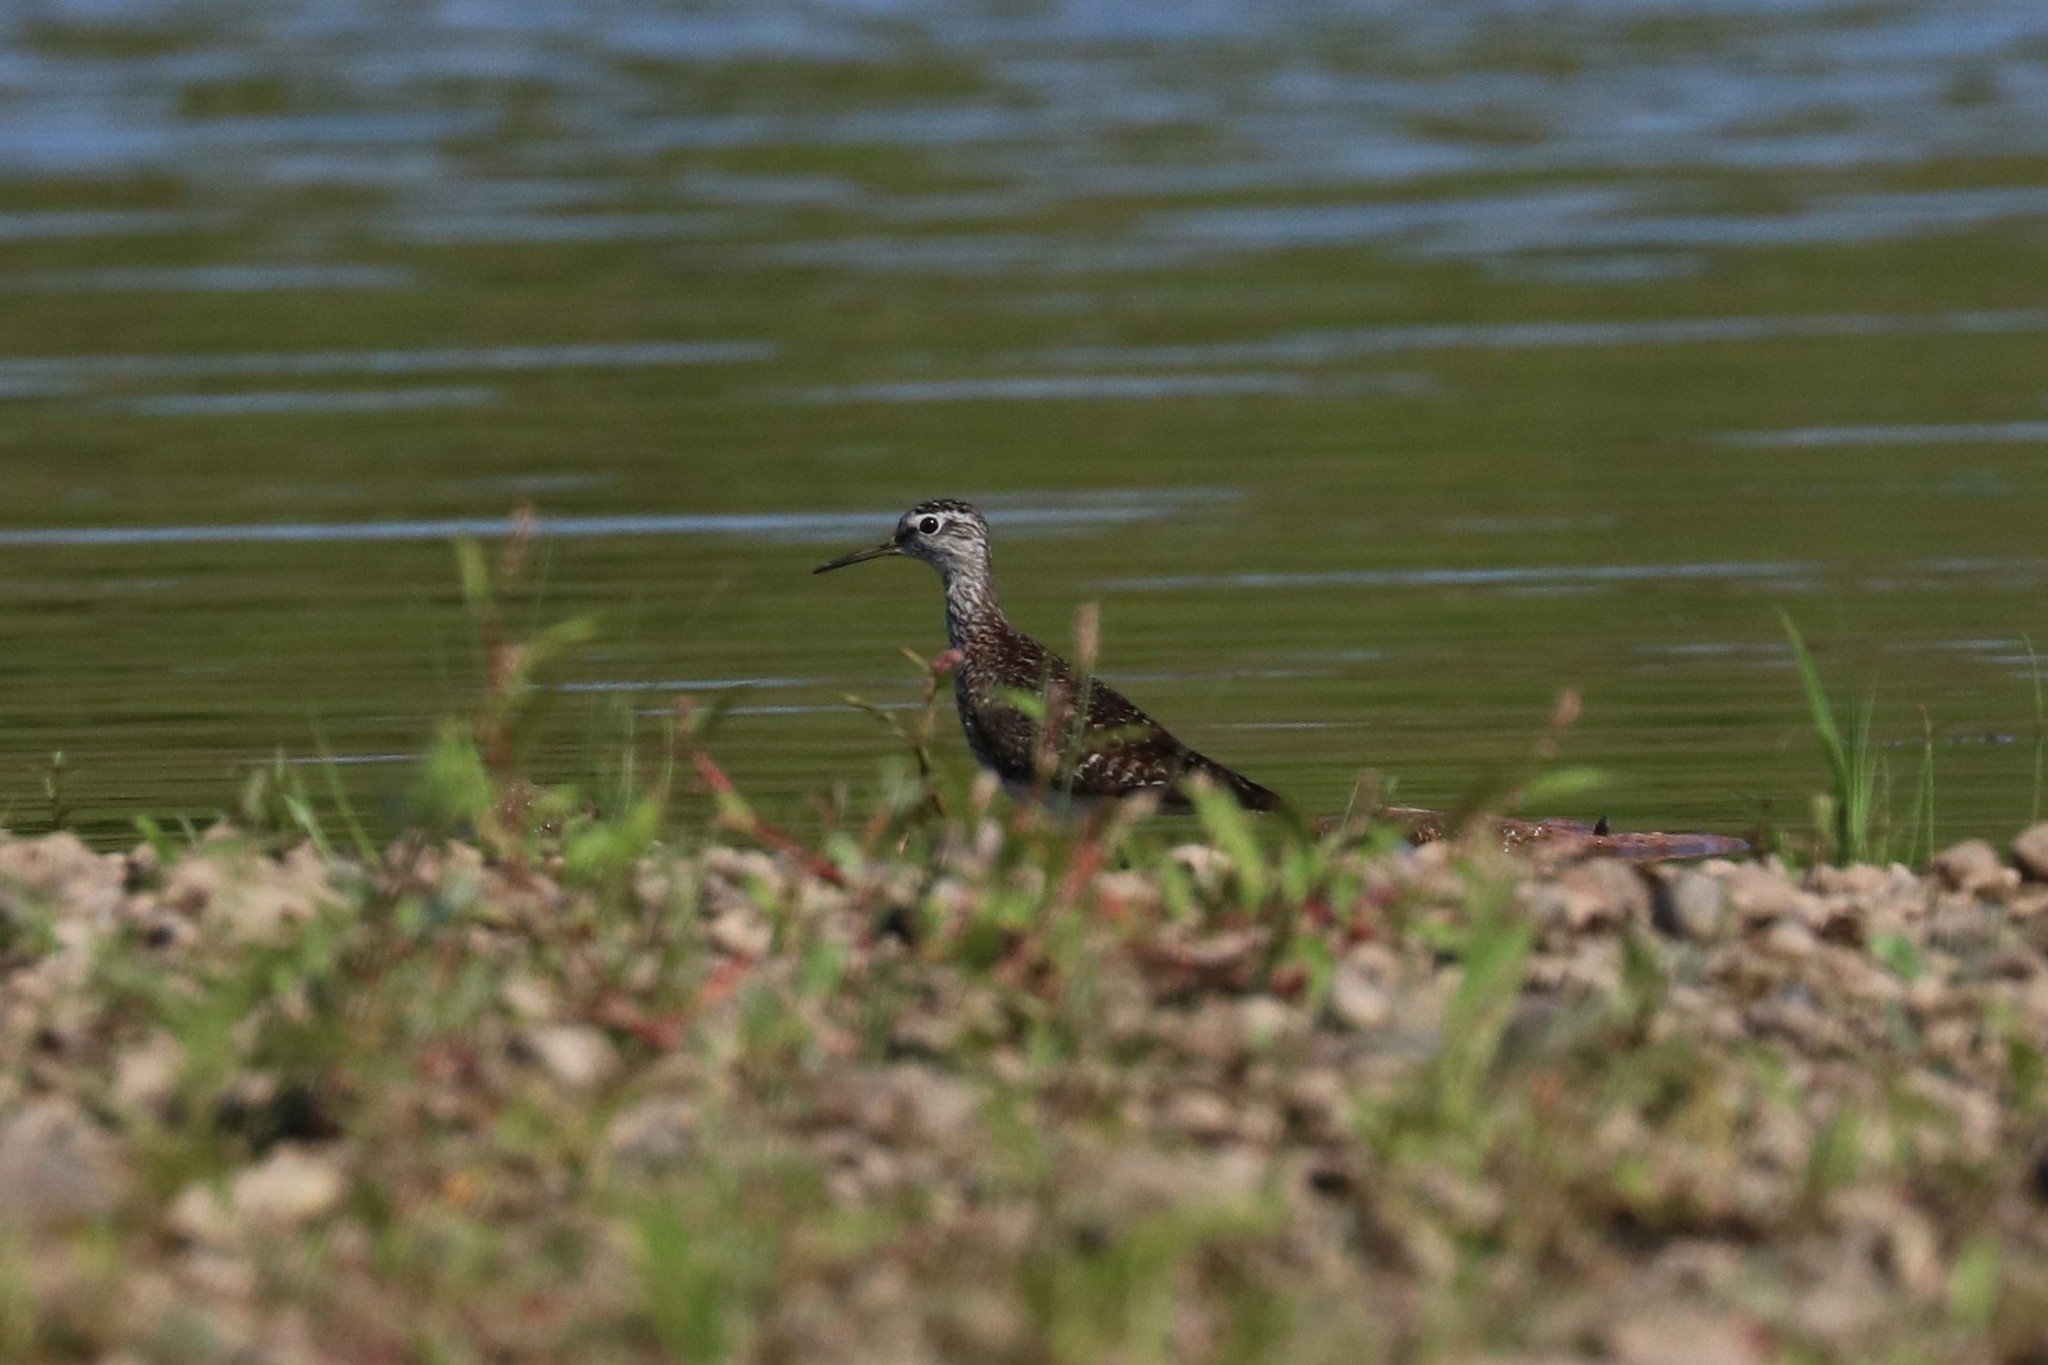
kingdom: Animalia
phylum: Chordata
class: Aves
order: Charadriiformes
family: Scolopacidae
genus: Tringa
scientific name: Tringa glareola
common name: Wood sandpiper
